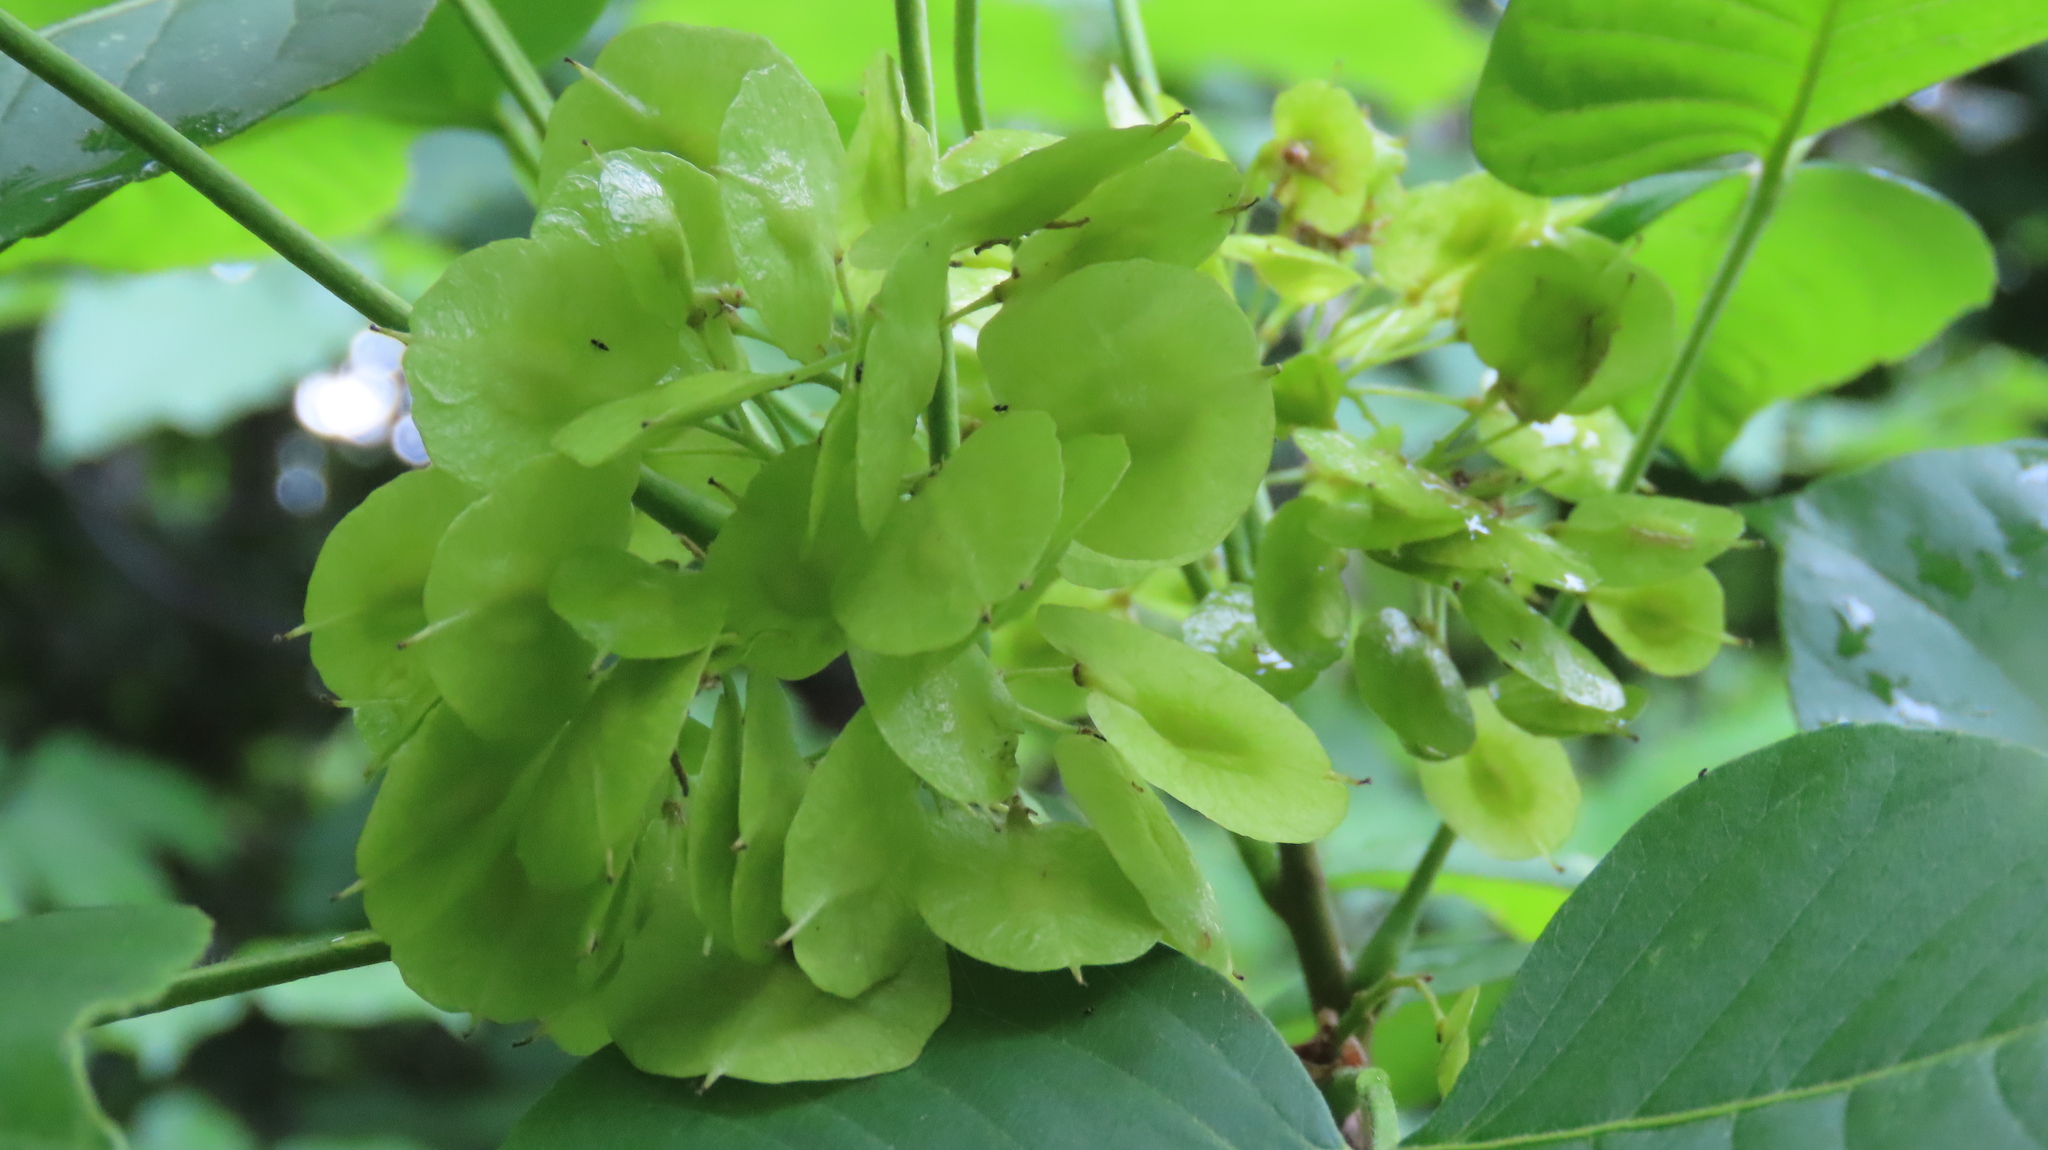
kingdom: Plantae
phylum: Tracheophyta
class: Magnoliopsida
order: Sapindales
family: Rutaceae
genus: Ptelea
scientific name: Ptelea trifoliata
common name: Common hop-tree
